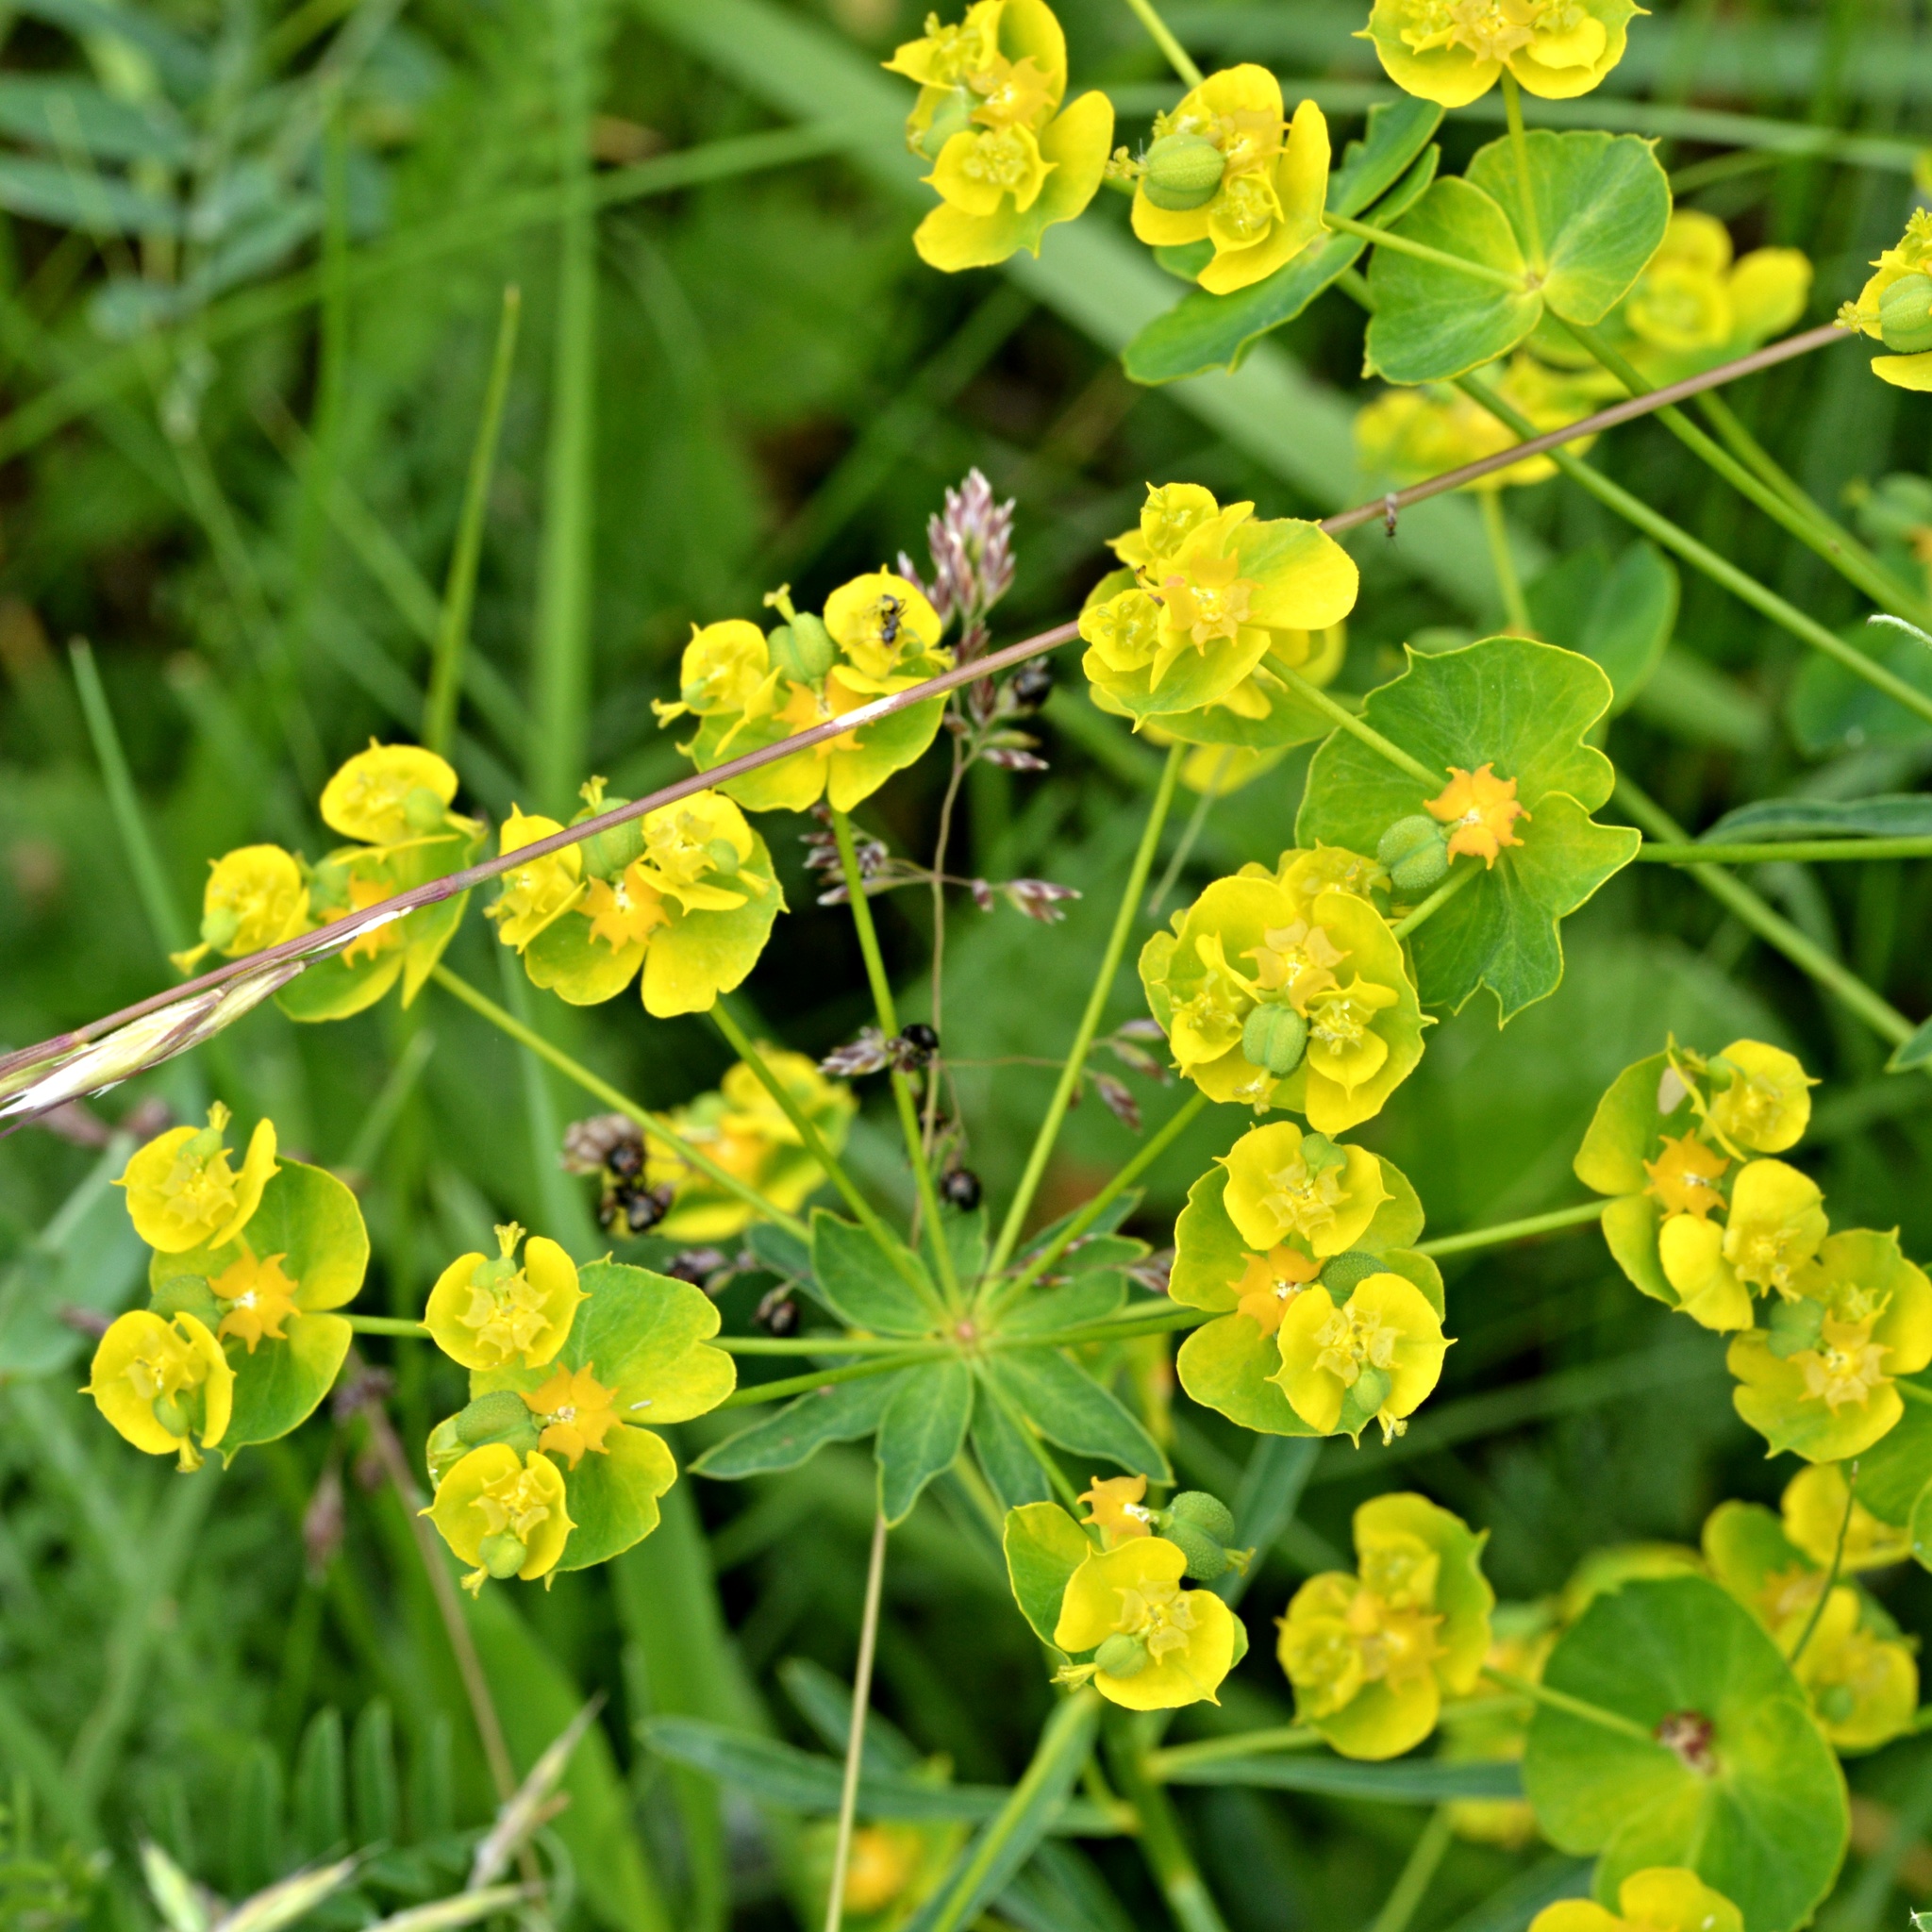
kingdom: Plantae
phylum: Tracheophyta
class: Magnoliopsida
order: Malpighiales
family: Euphorbiaceae
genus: Euphorbia
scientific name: Euphorbia esula
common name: Leafy spurge
